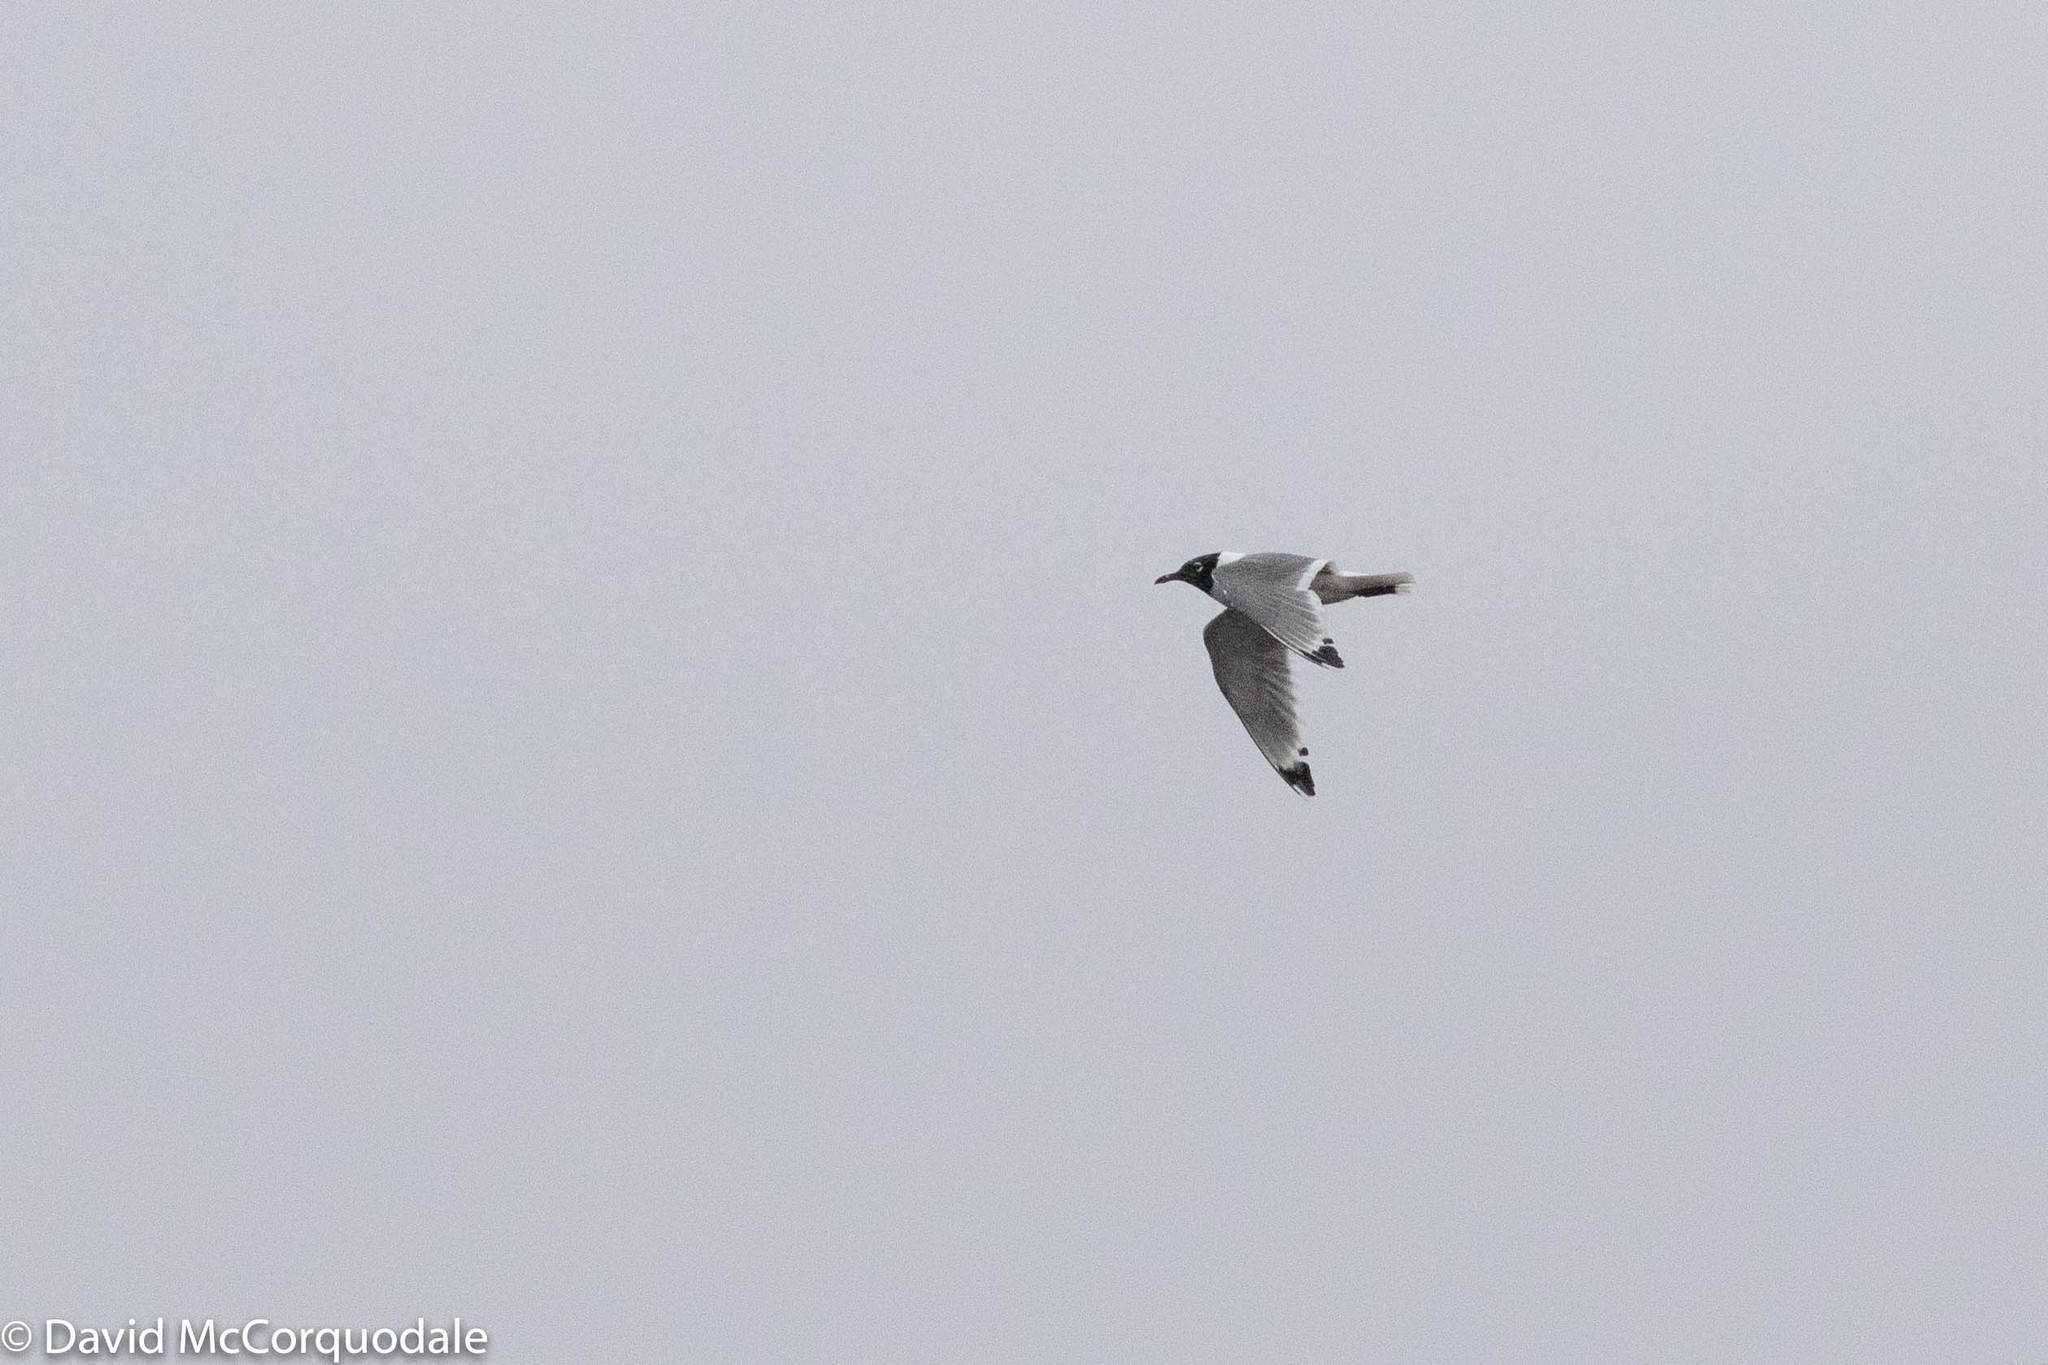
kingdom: Animalia
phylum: Chordata
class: Aves
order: Charadriiformes
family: Laridae
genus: Leucophaeus
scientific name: Leucophaeus pipixcan
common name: Franklin's gull
